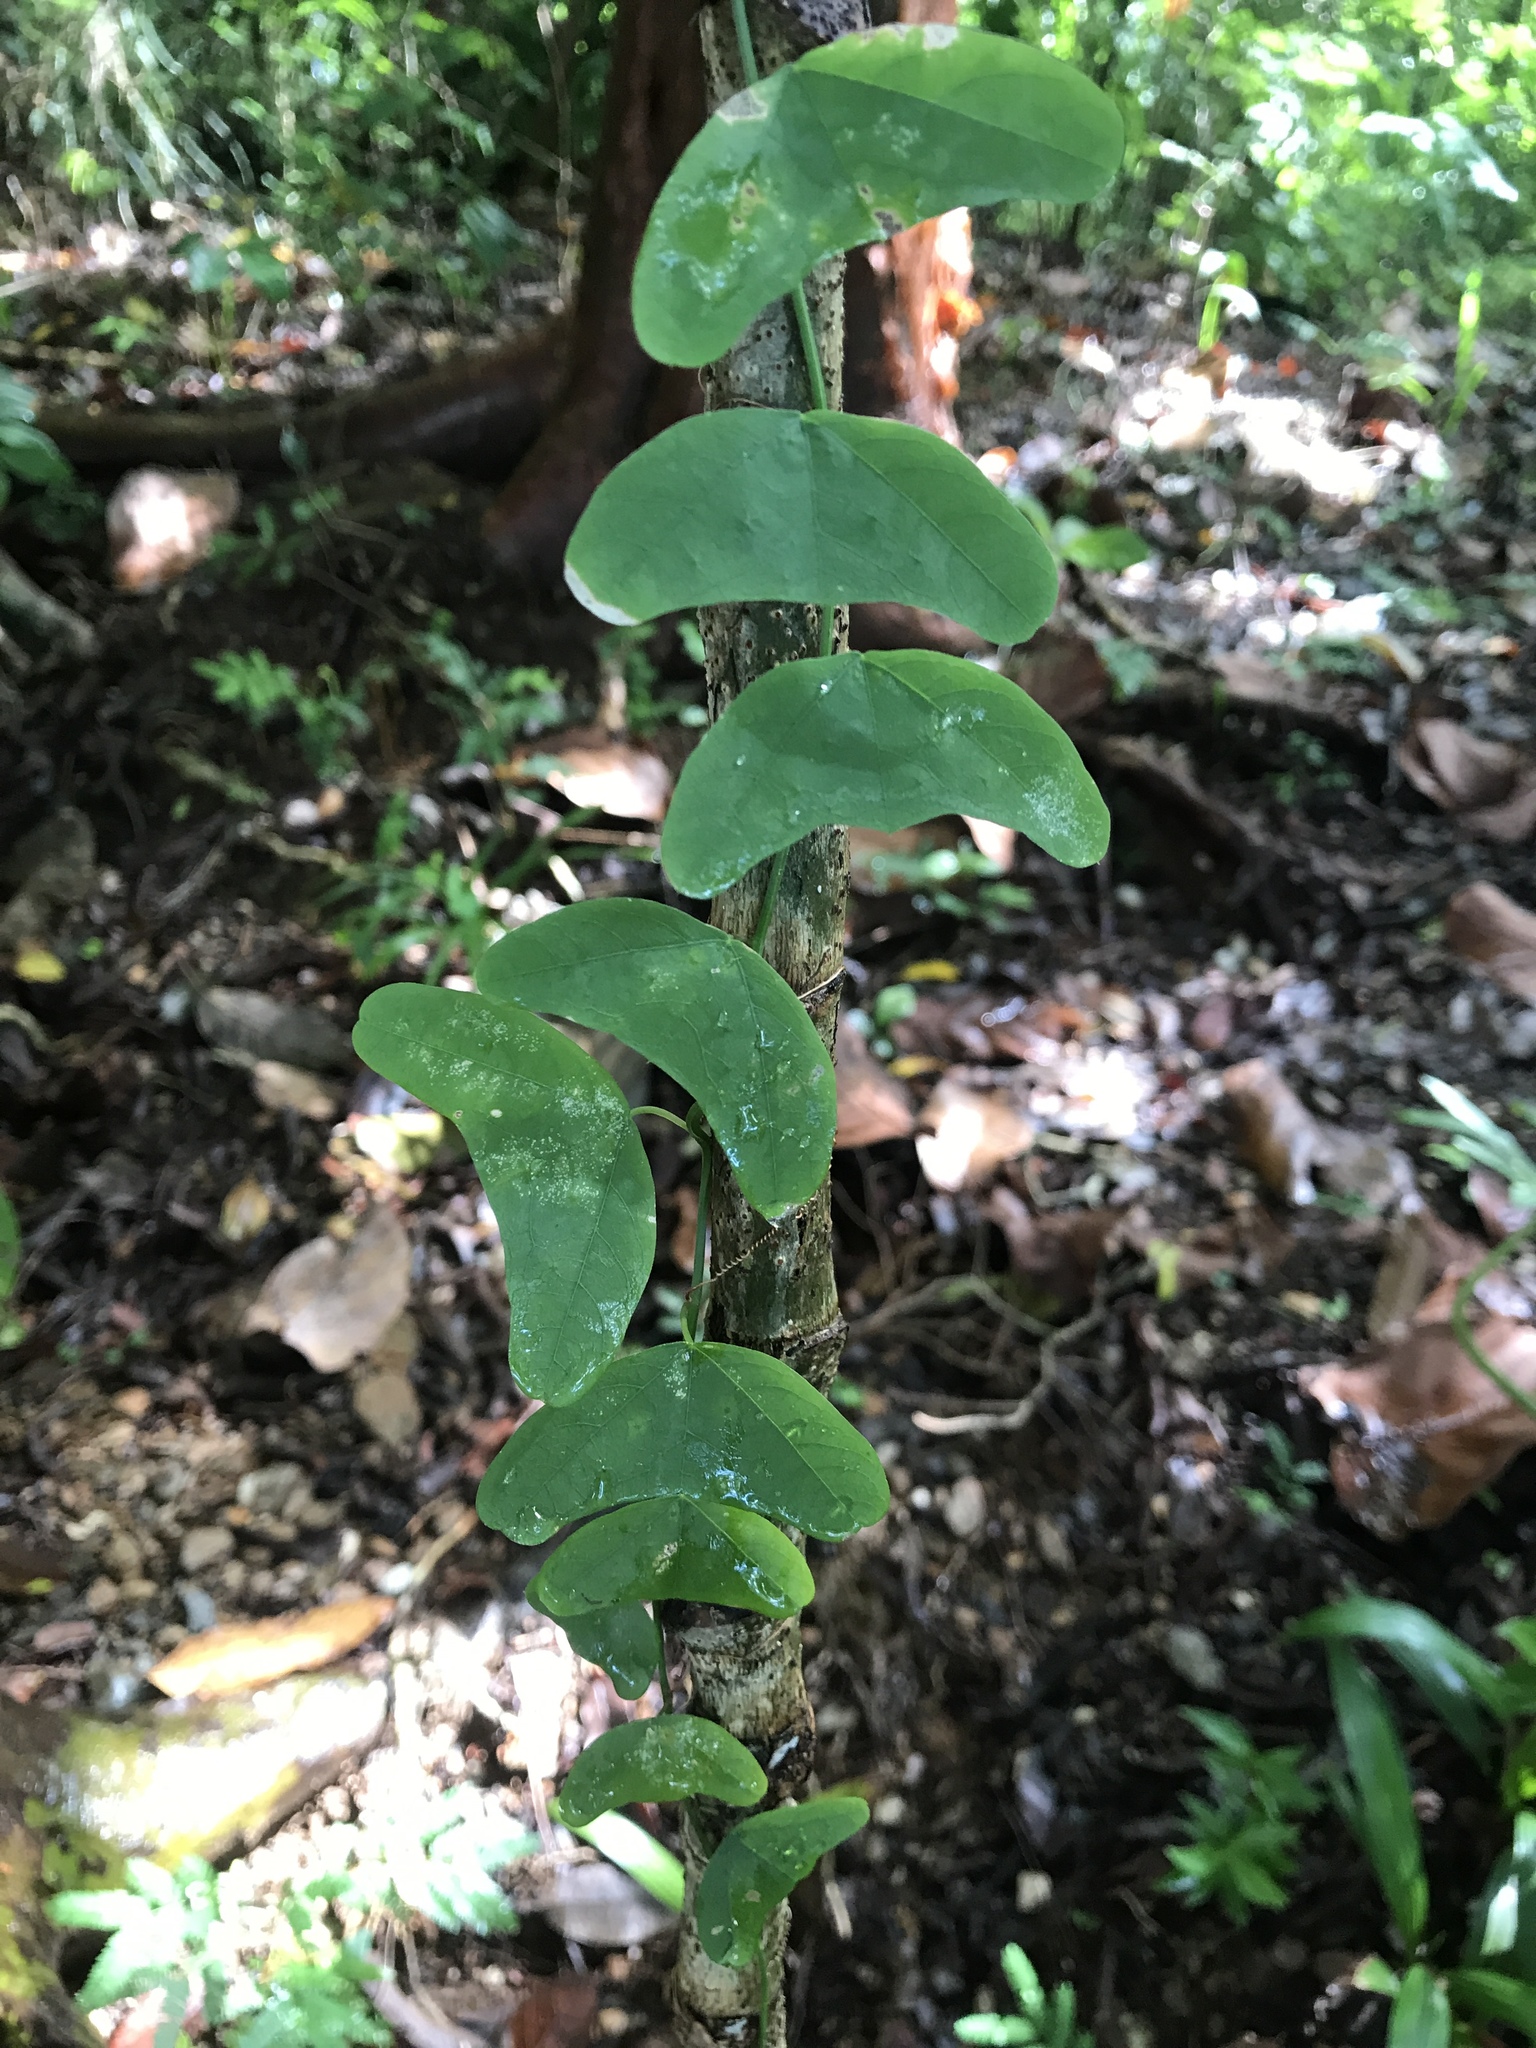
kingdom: Plantae
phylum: Tracheophyta
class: Magnoliopsida
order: Malpighiales
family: Passifloraceae
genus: Passiflora
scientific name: Passiflora biflora
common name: Twoflower passionflower
